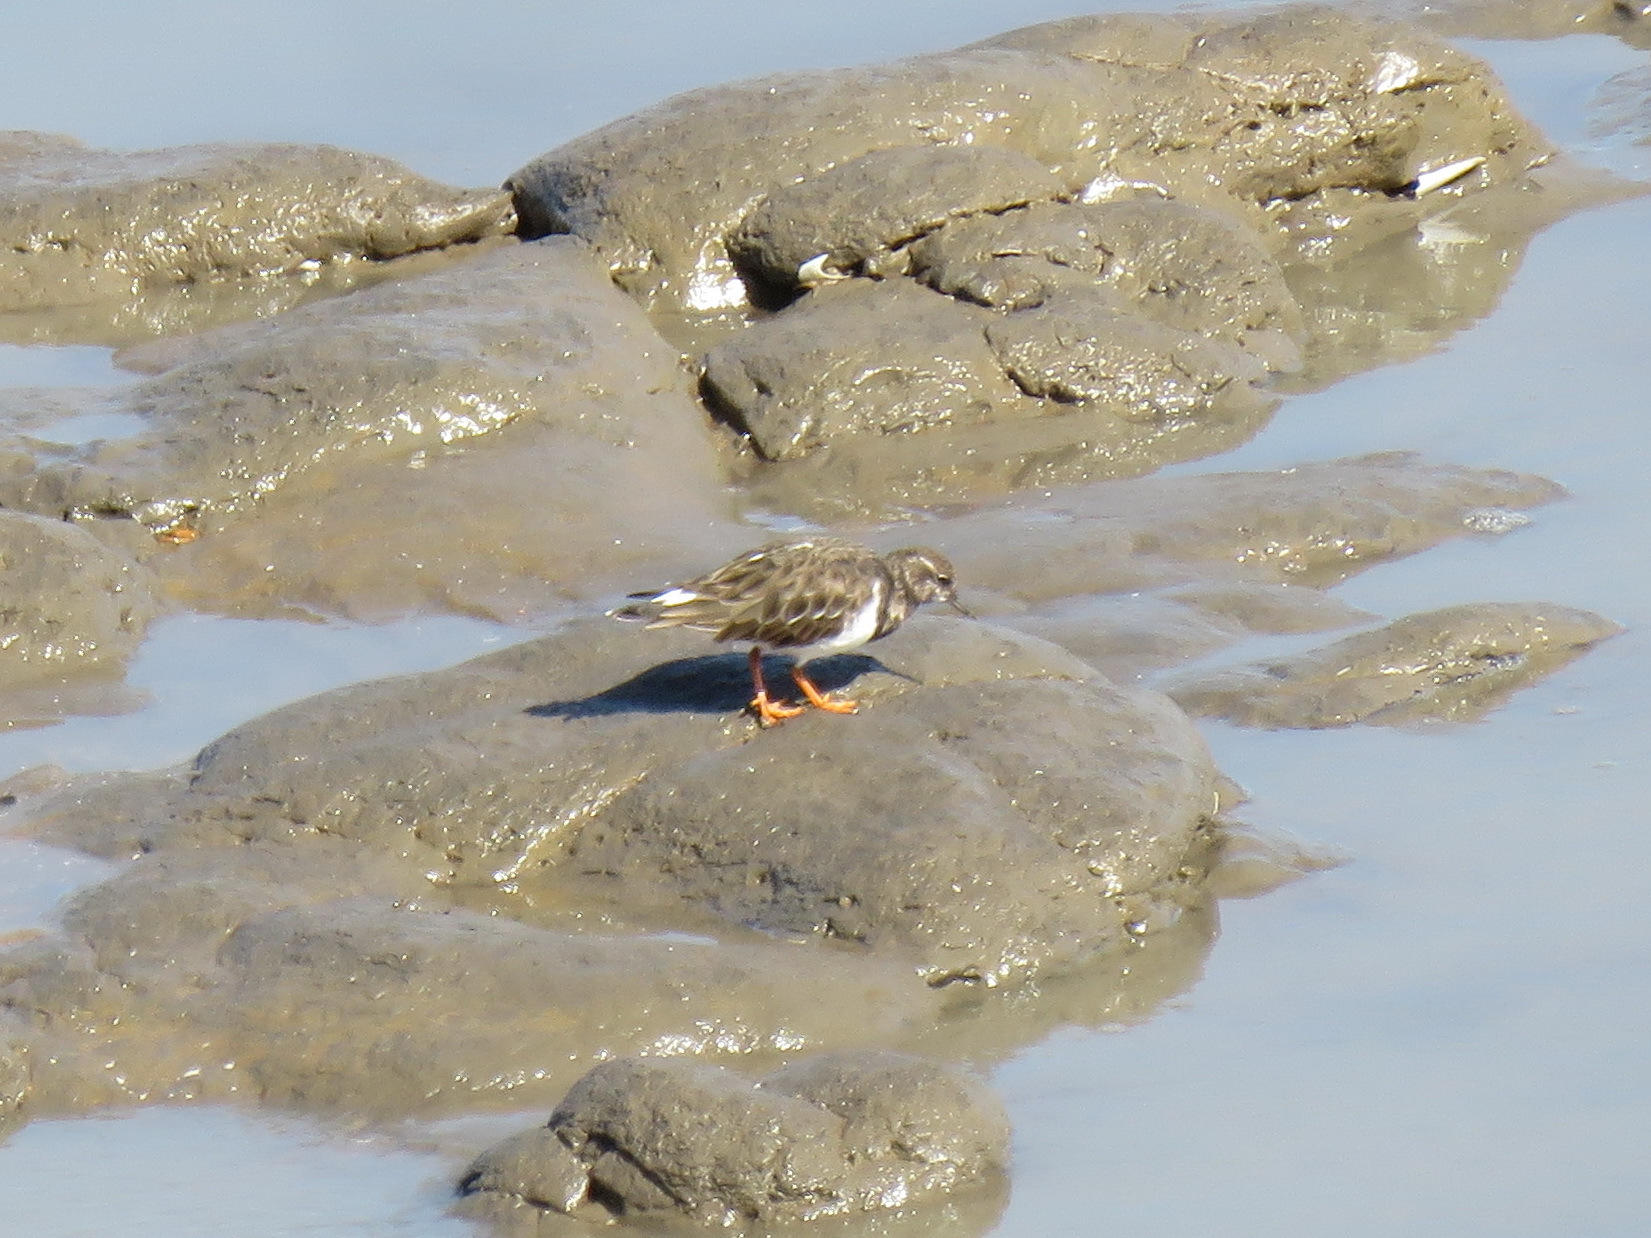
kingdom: Animalia
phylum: Chordata
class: Aves
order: Charadriiformes
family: Scolopacidae
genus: Arenaria
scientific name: Arenaria interpres
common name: Ruddy turnstone
